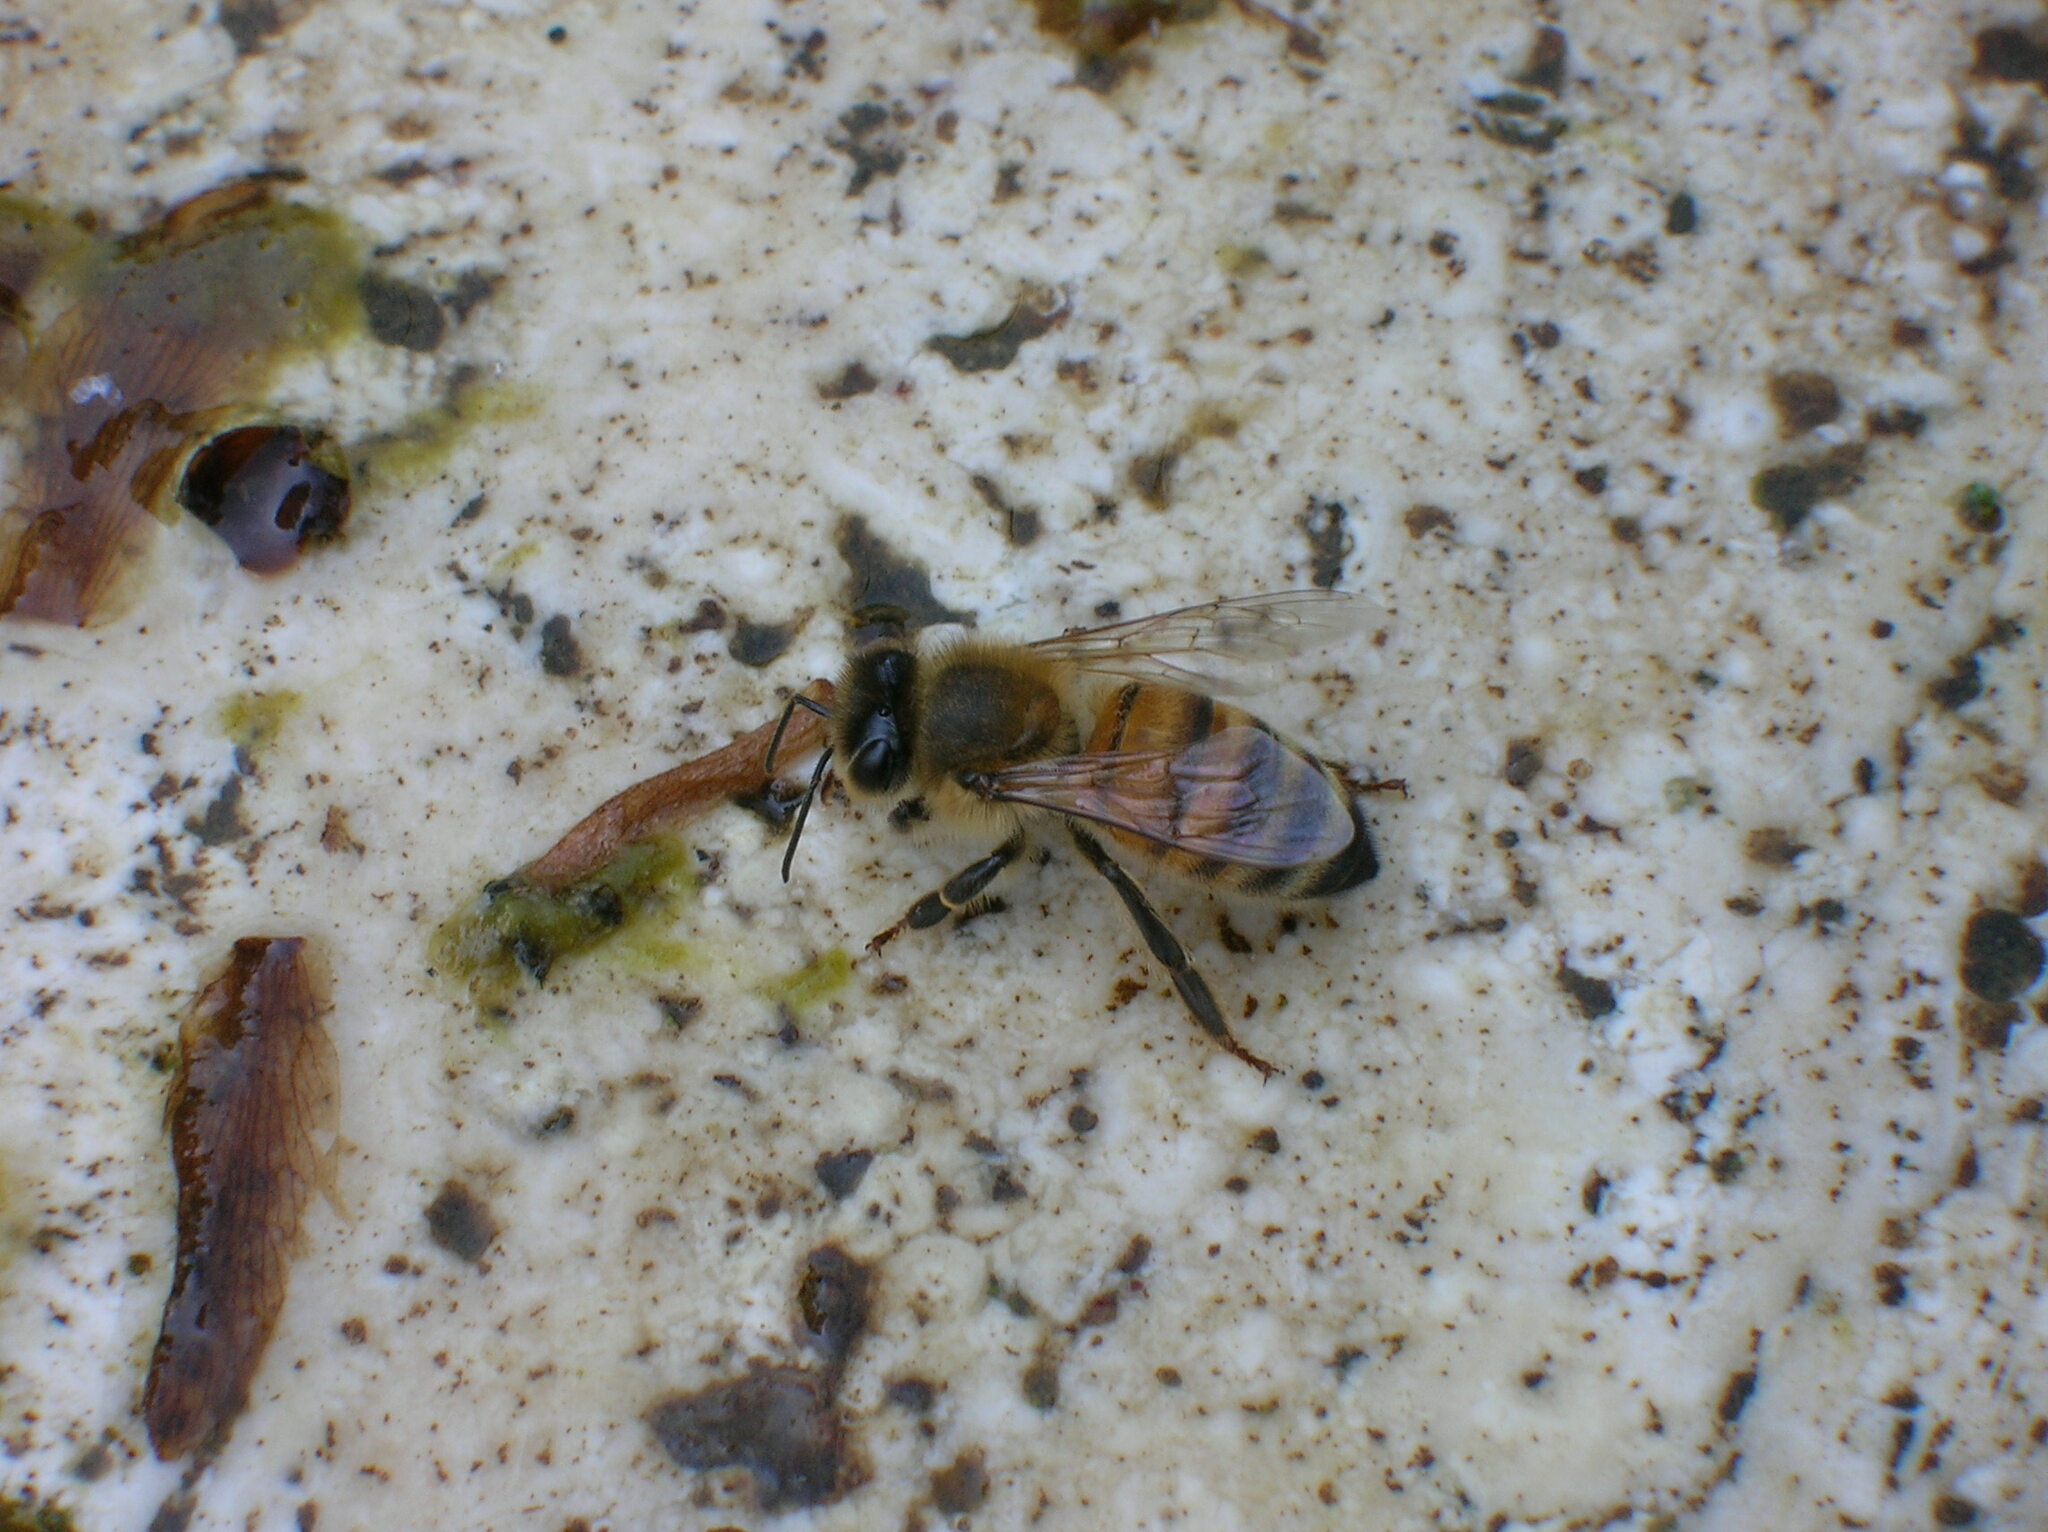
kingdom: Animalia
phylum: Arthropoda
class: Insecta
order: Hymenoptera
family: Apidae
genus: Apis
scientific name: Apis mellifera
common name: Honey bee
